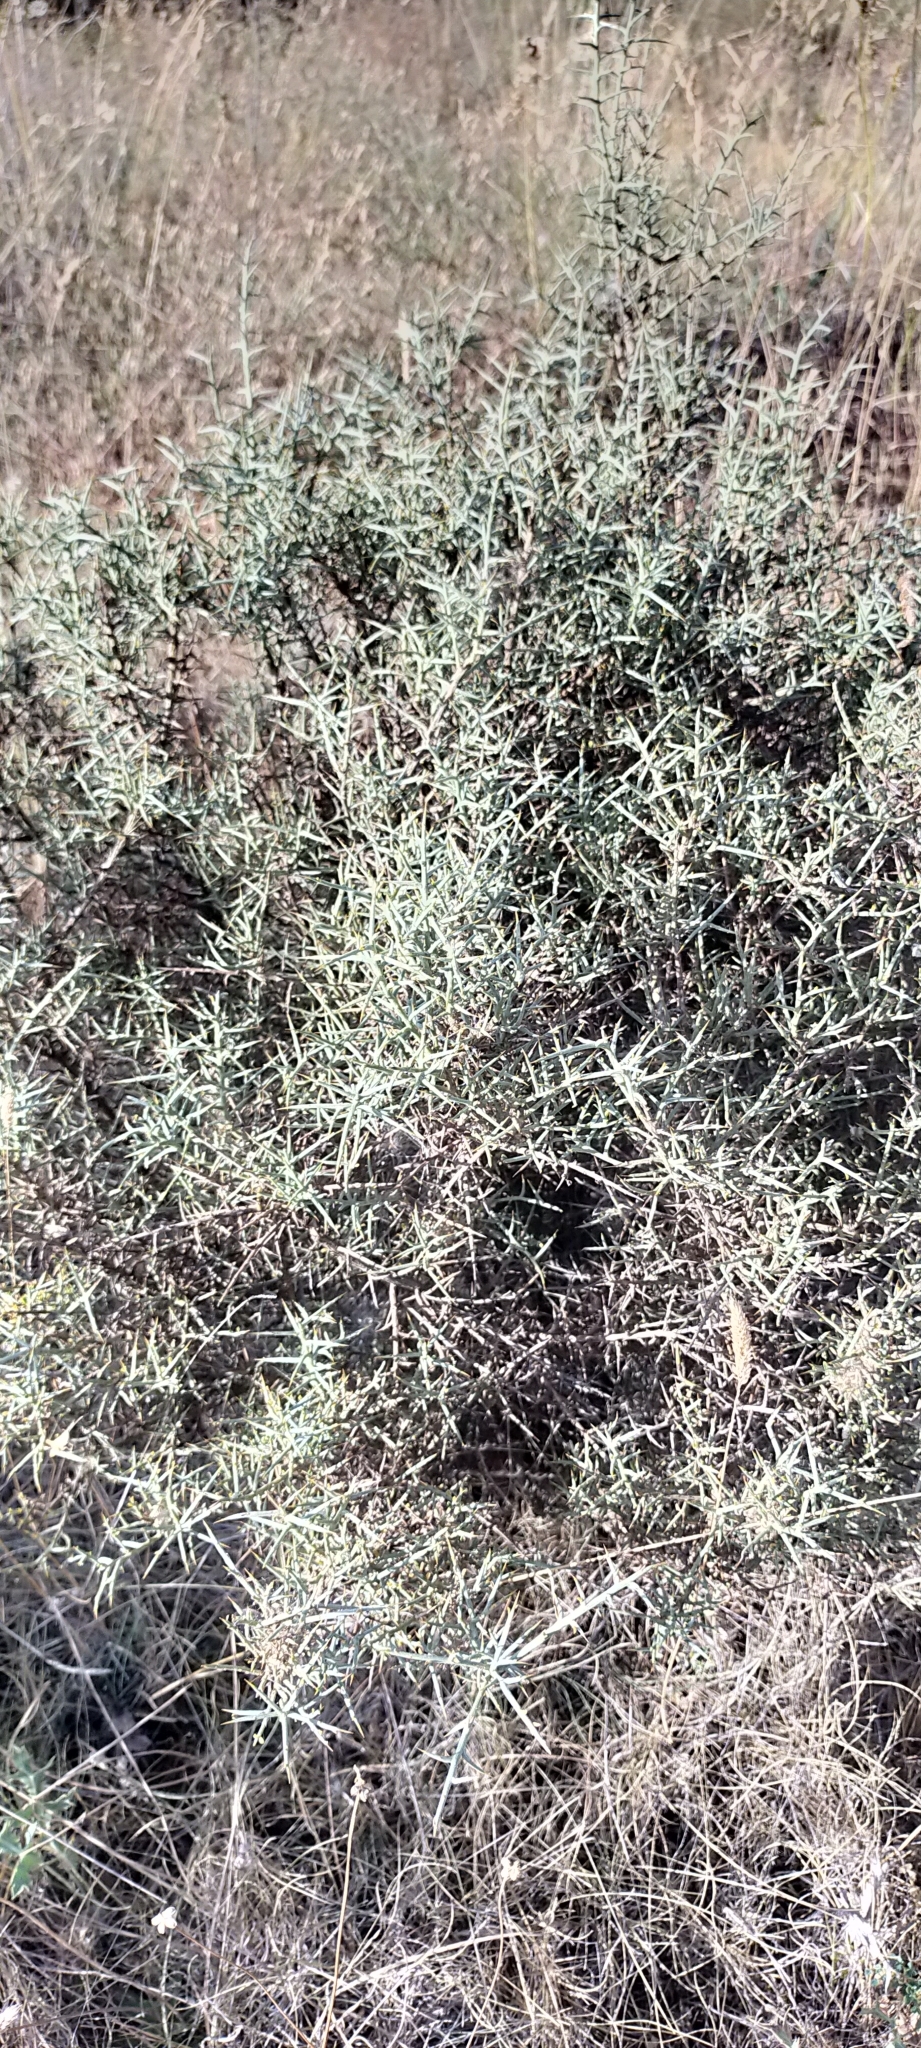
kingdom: Plantae
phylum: Tracheophyta
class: Magnoliopsida
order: Fabales
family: Fabaceae
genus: Genista
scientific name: Genista scorpius
